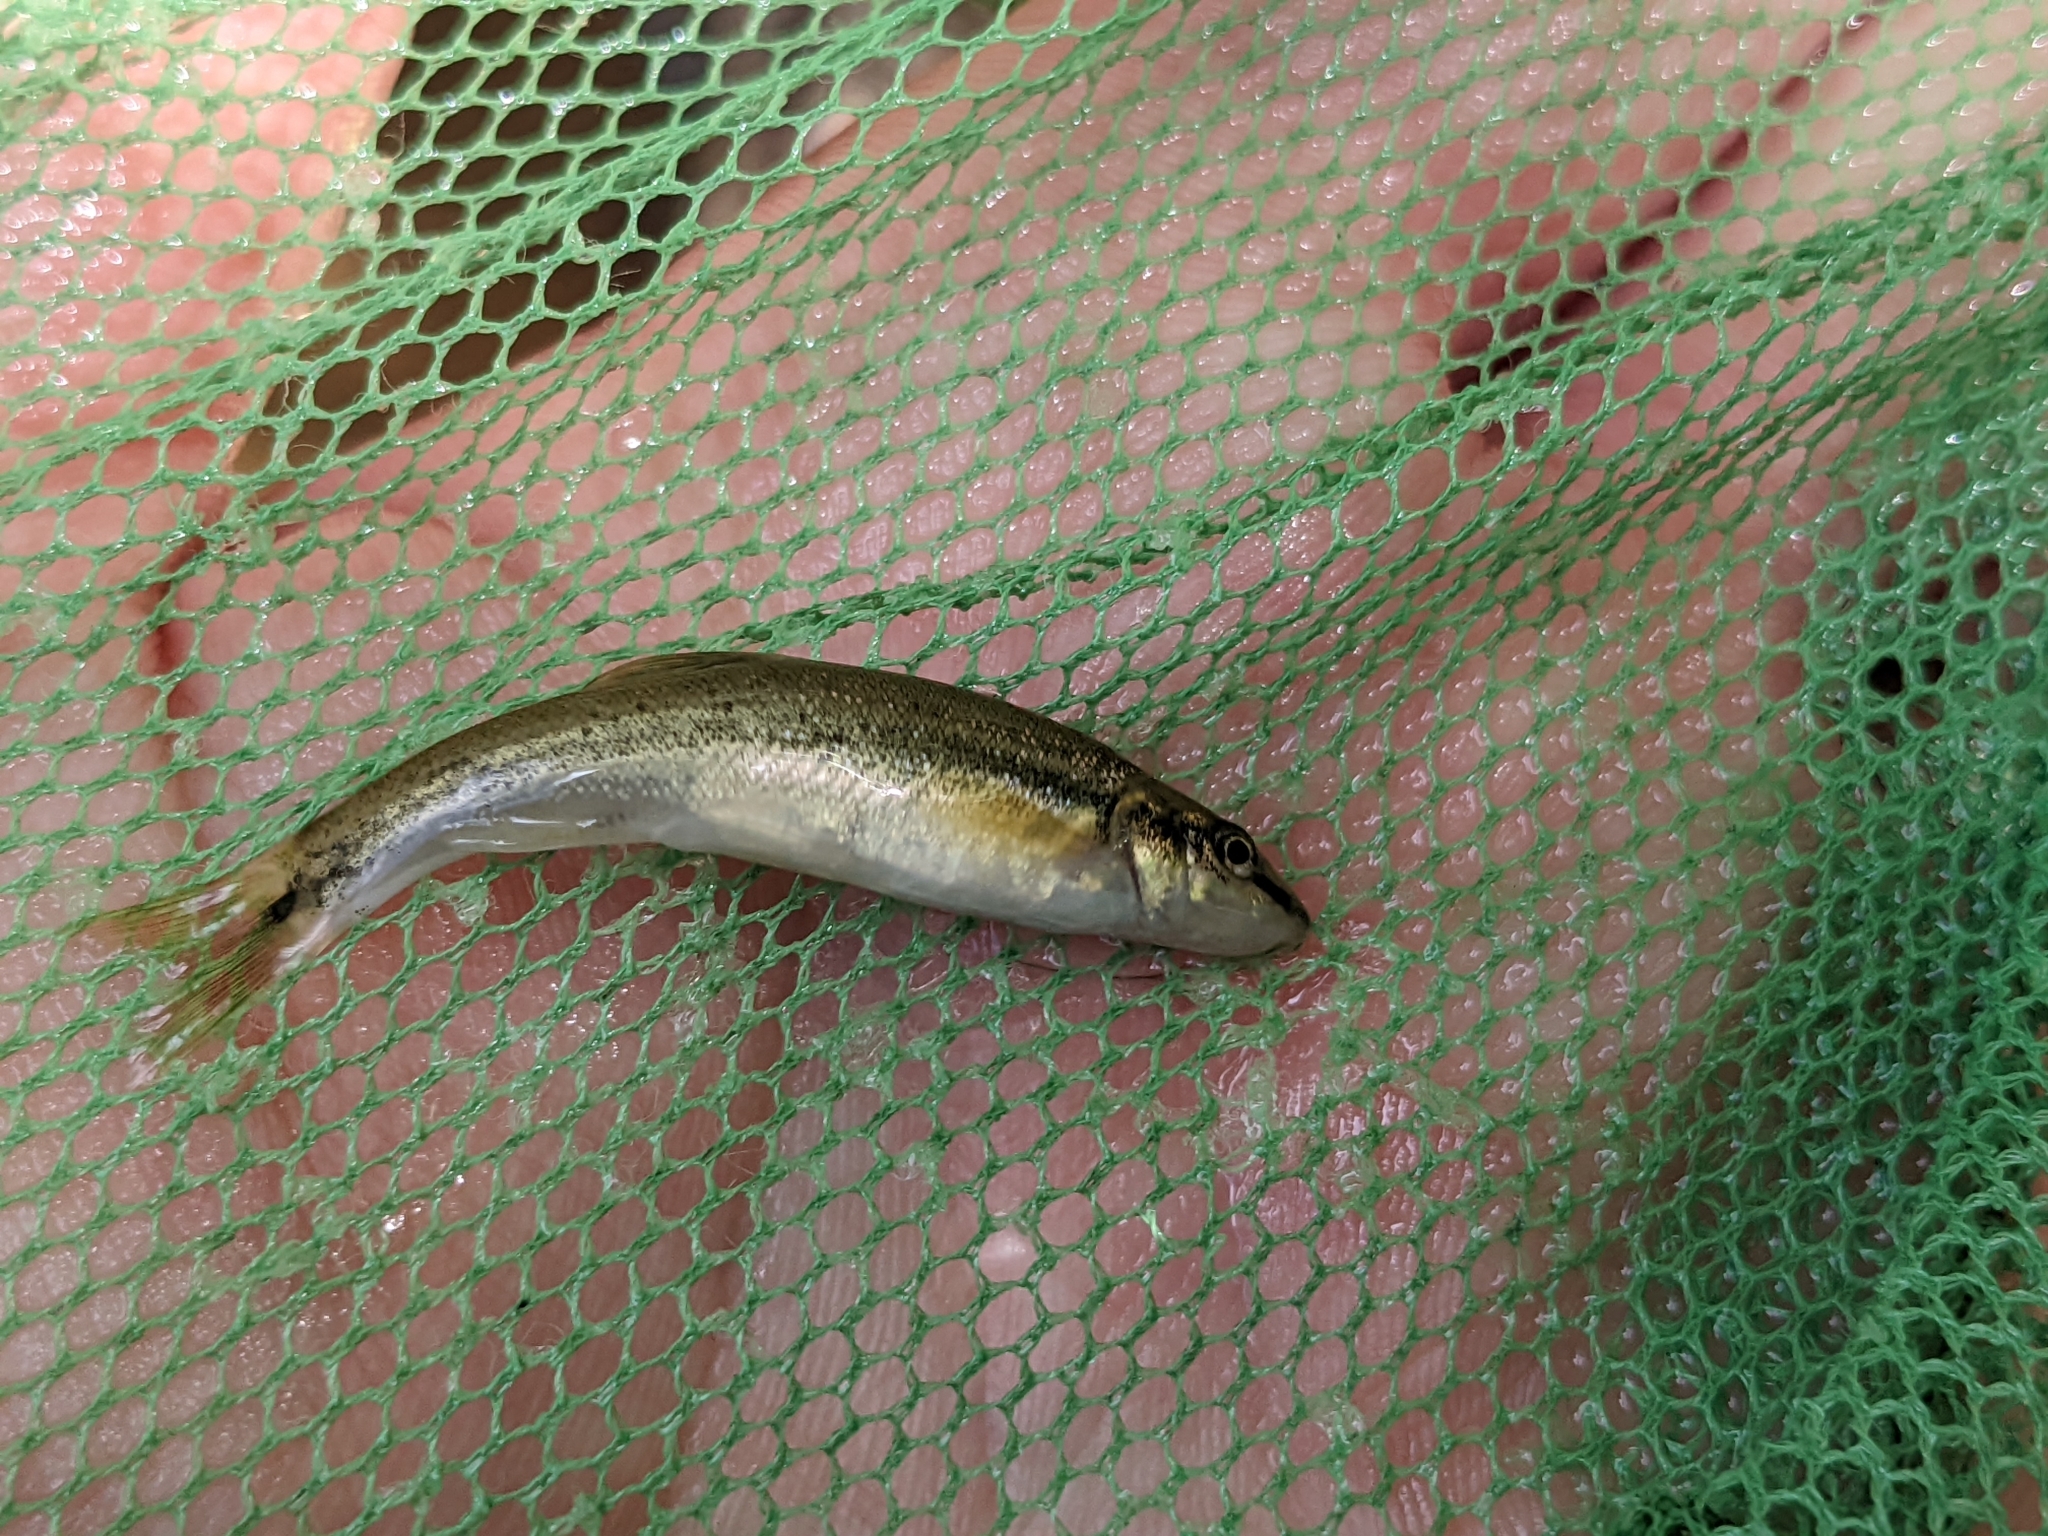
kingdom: Animalia
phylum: Chordata
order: Cypriniformes
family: Cyprinidae
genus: Rhinichthys
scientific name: Rhinichthys cataractae
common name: Longnose dace
